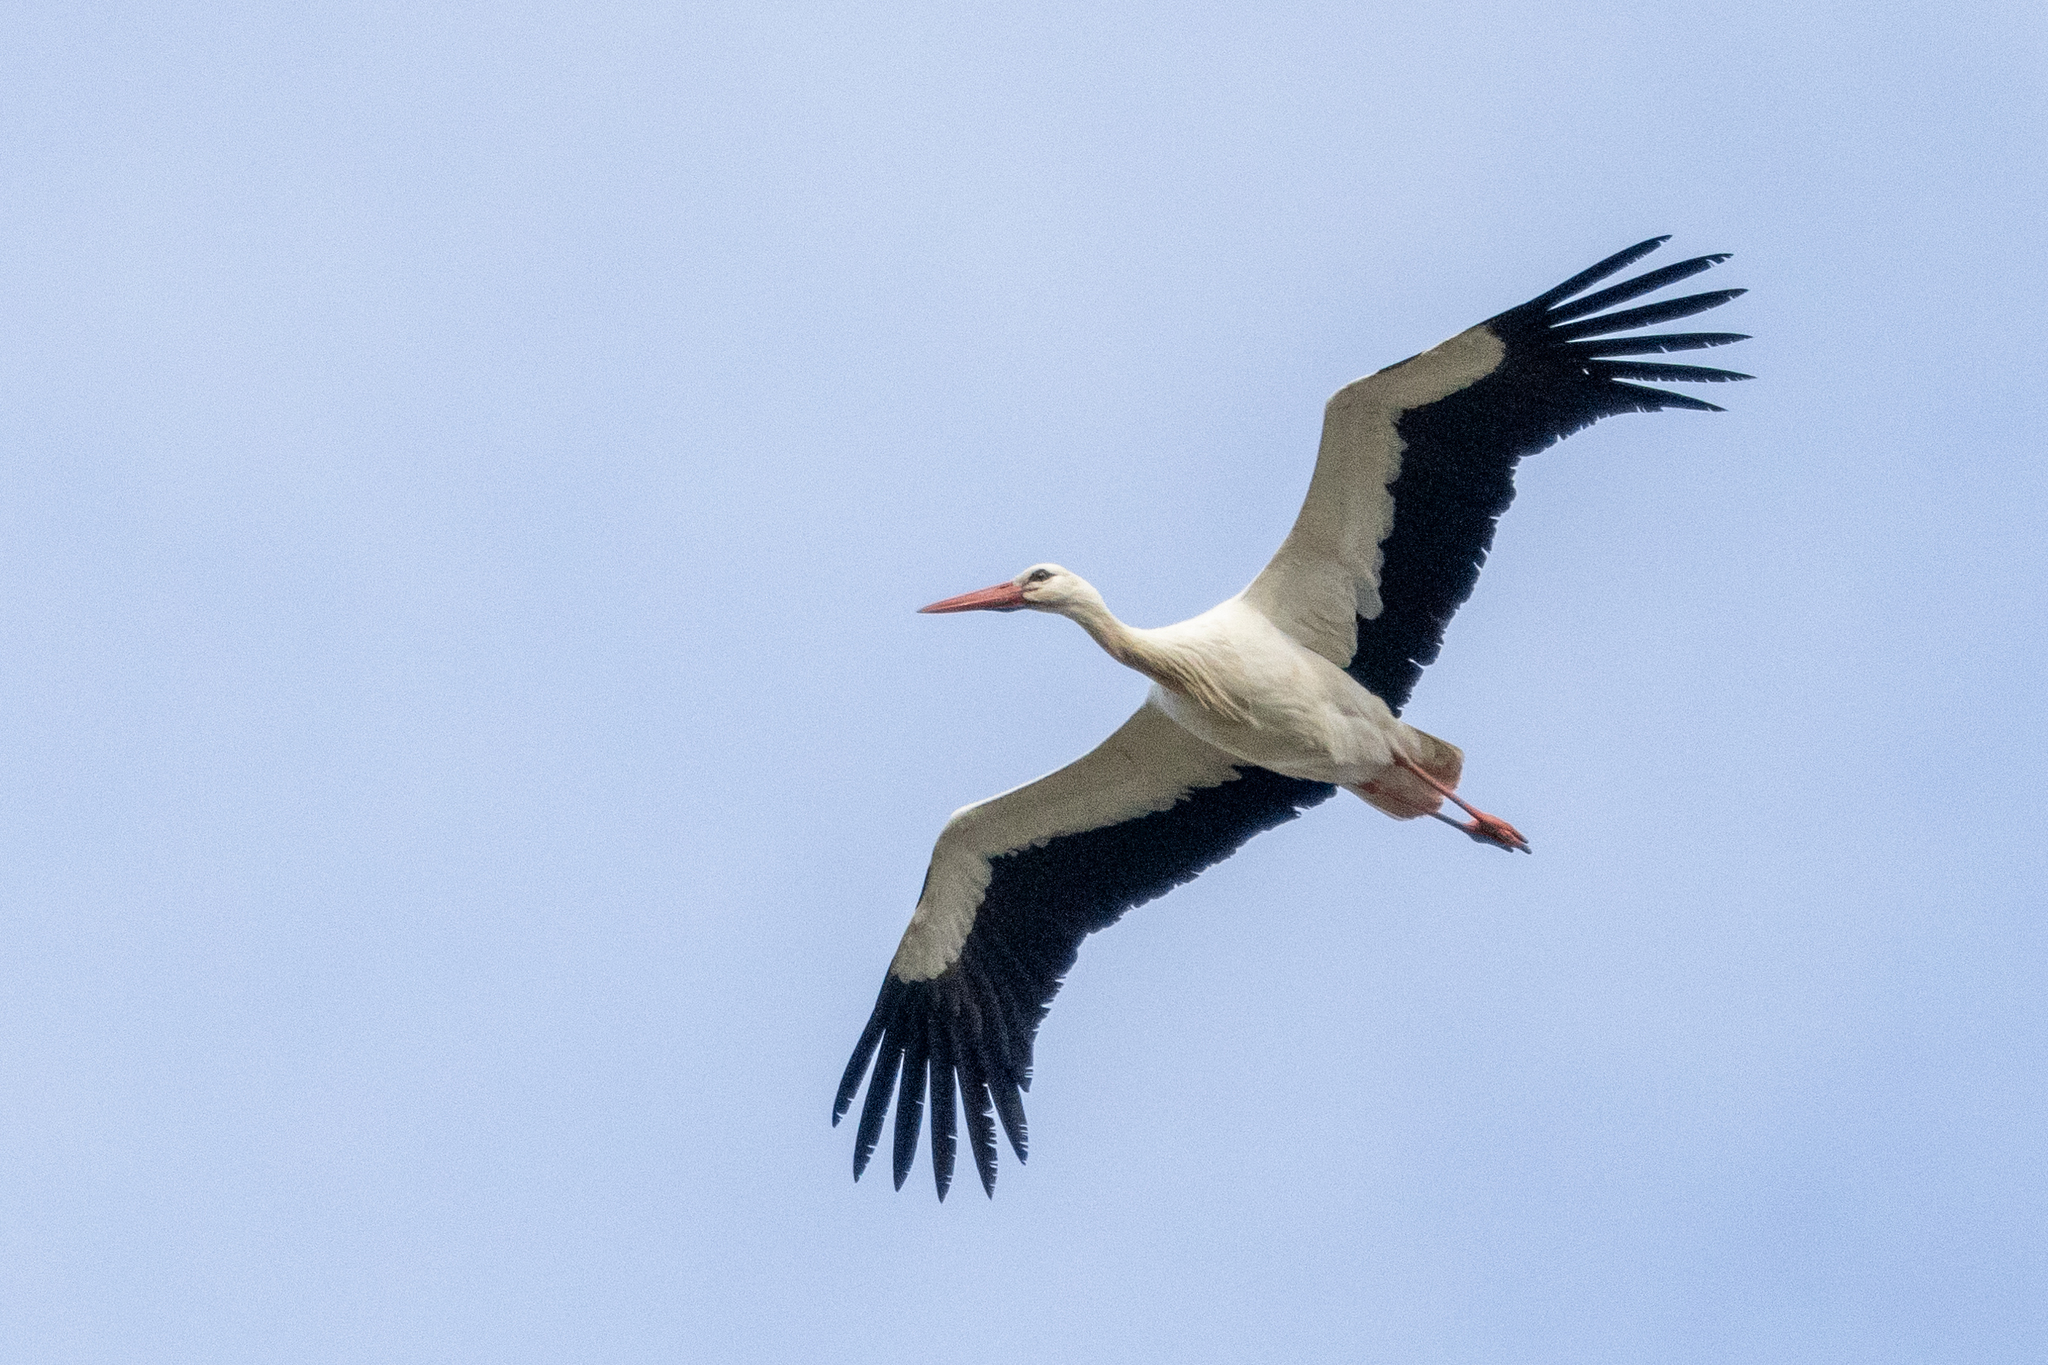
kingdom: Animalia
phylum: Chordata
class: Aves
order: Ciconiiformes
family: Ciconiidae
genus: Ciconia
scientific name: Ciconia ciconia
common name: White stork
